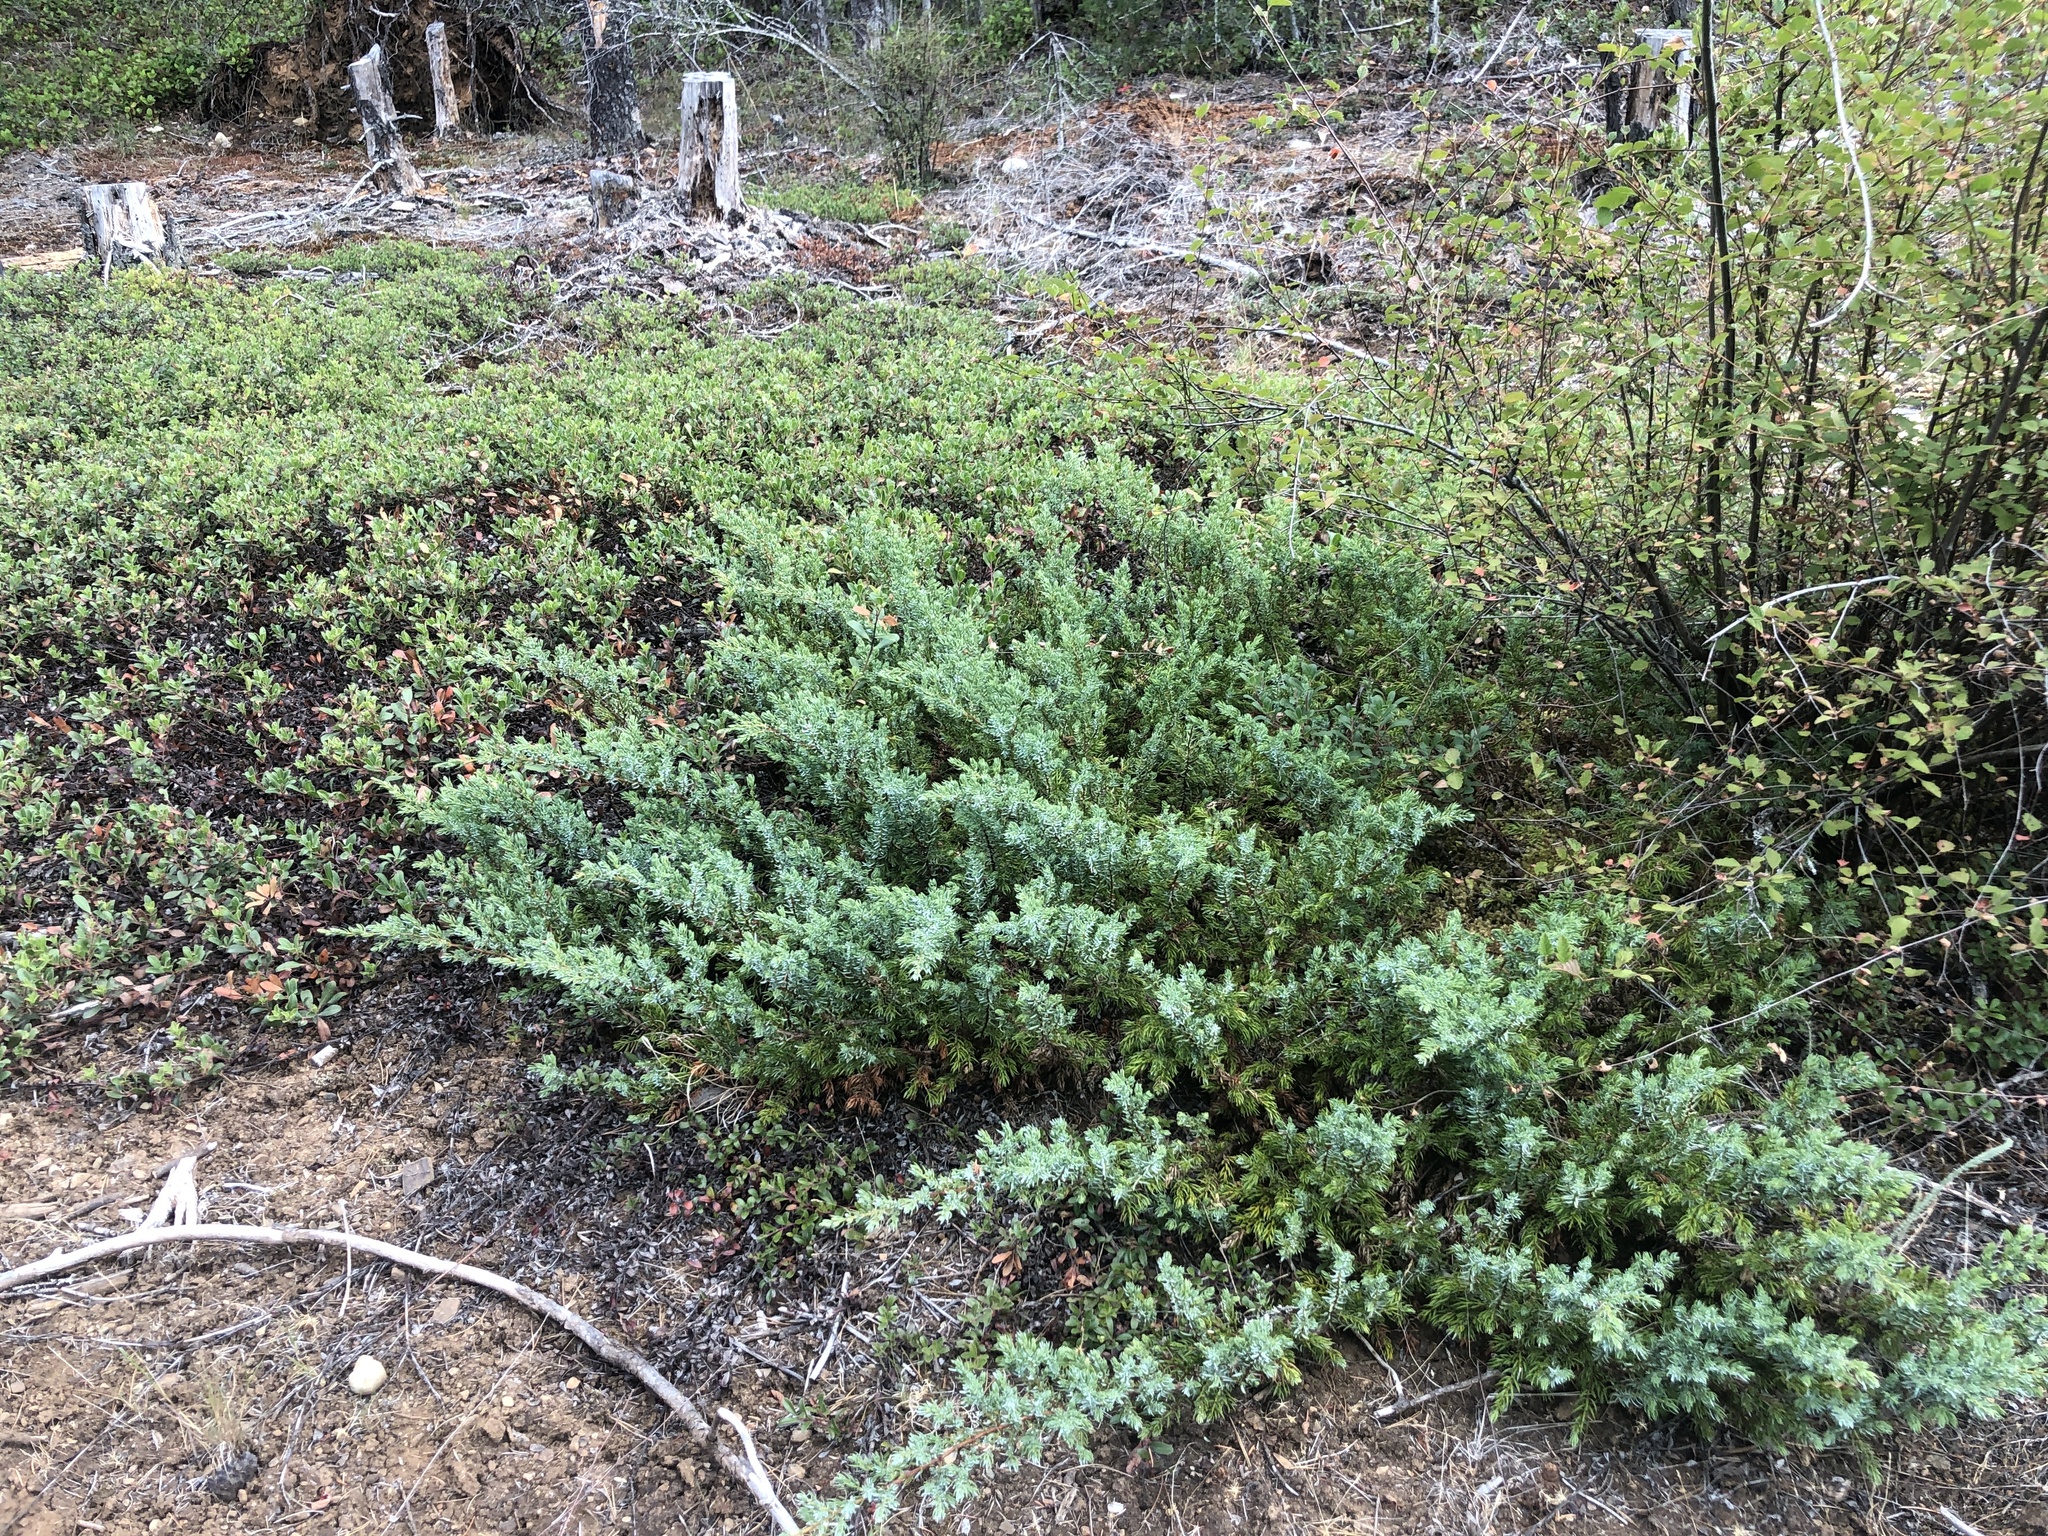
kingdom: Plantae
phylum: Tracheophyta
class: Pinopsida
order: Pinales
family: Cupressaceae
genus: Juniperus
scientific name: Juniperus communis
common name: Common juniper
